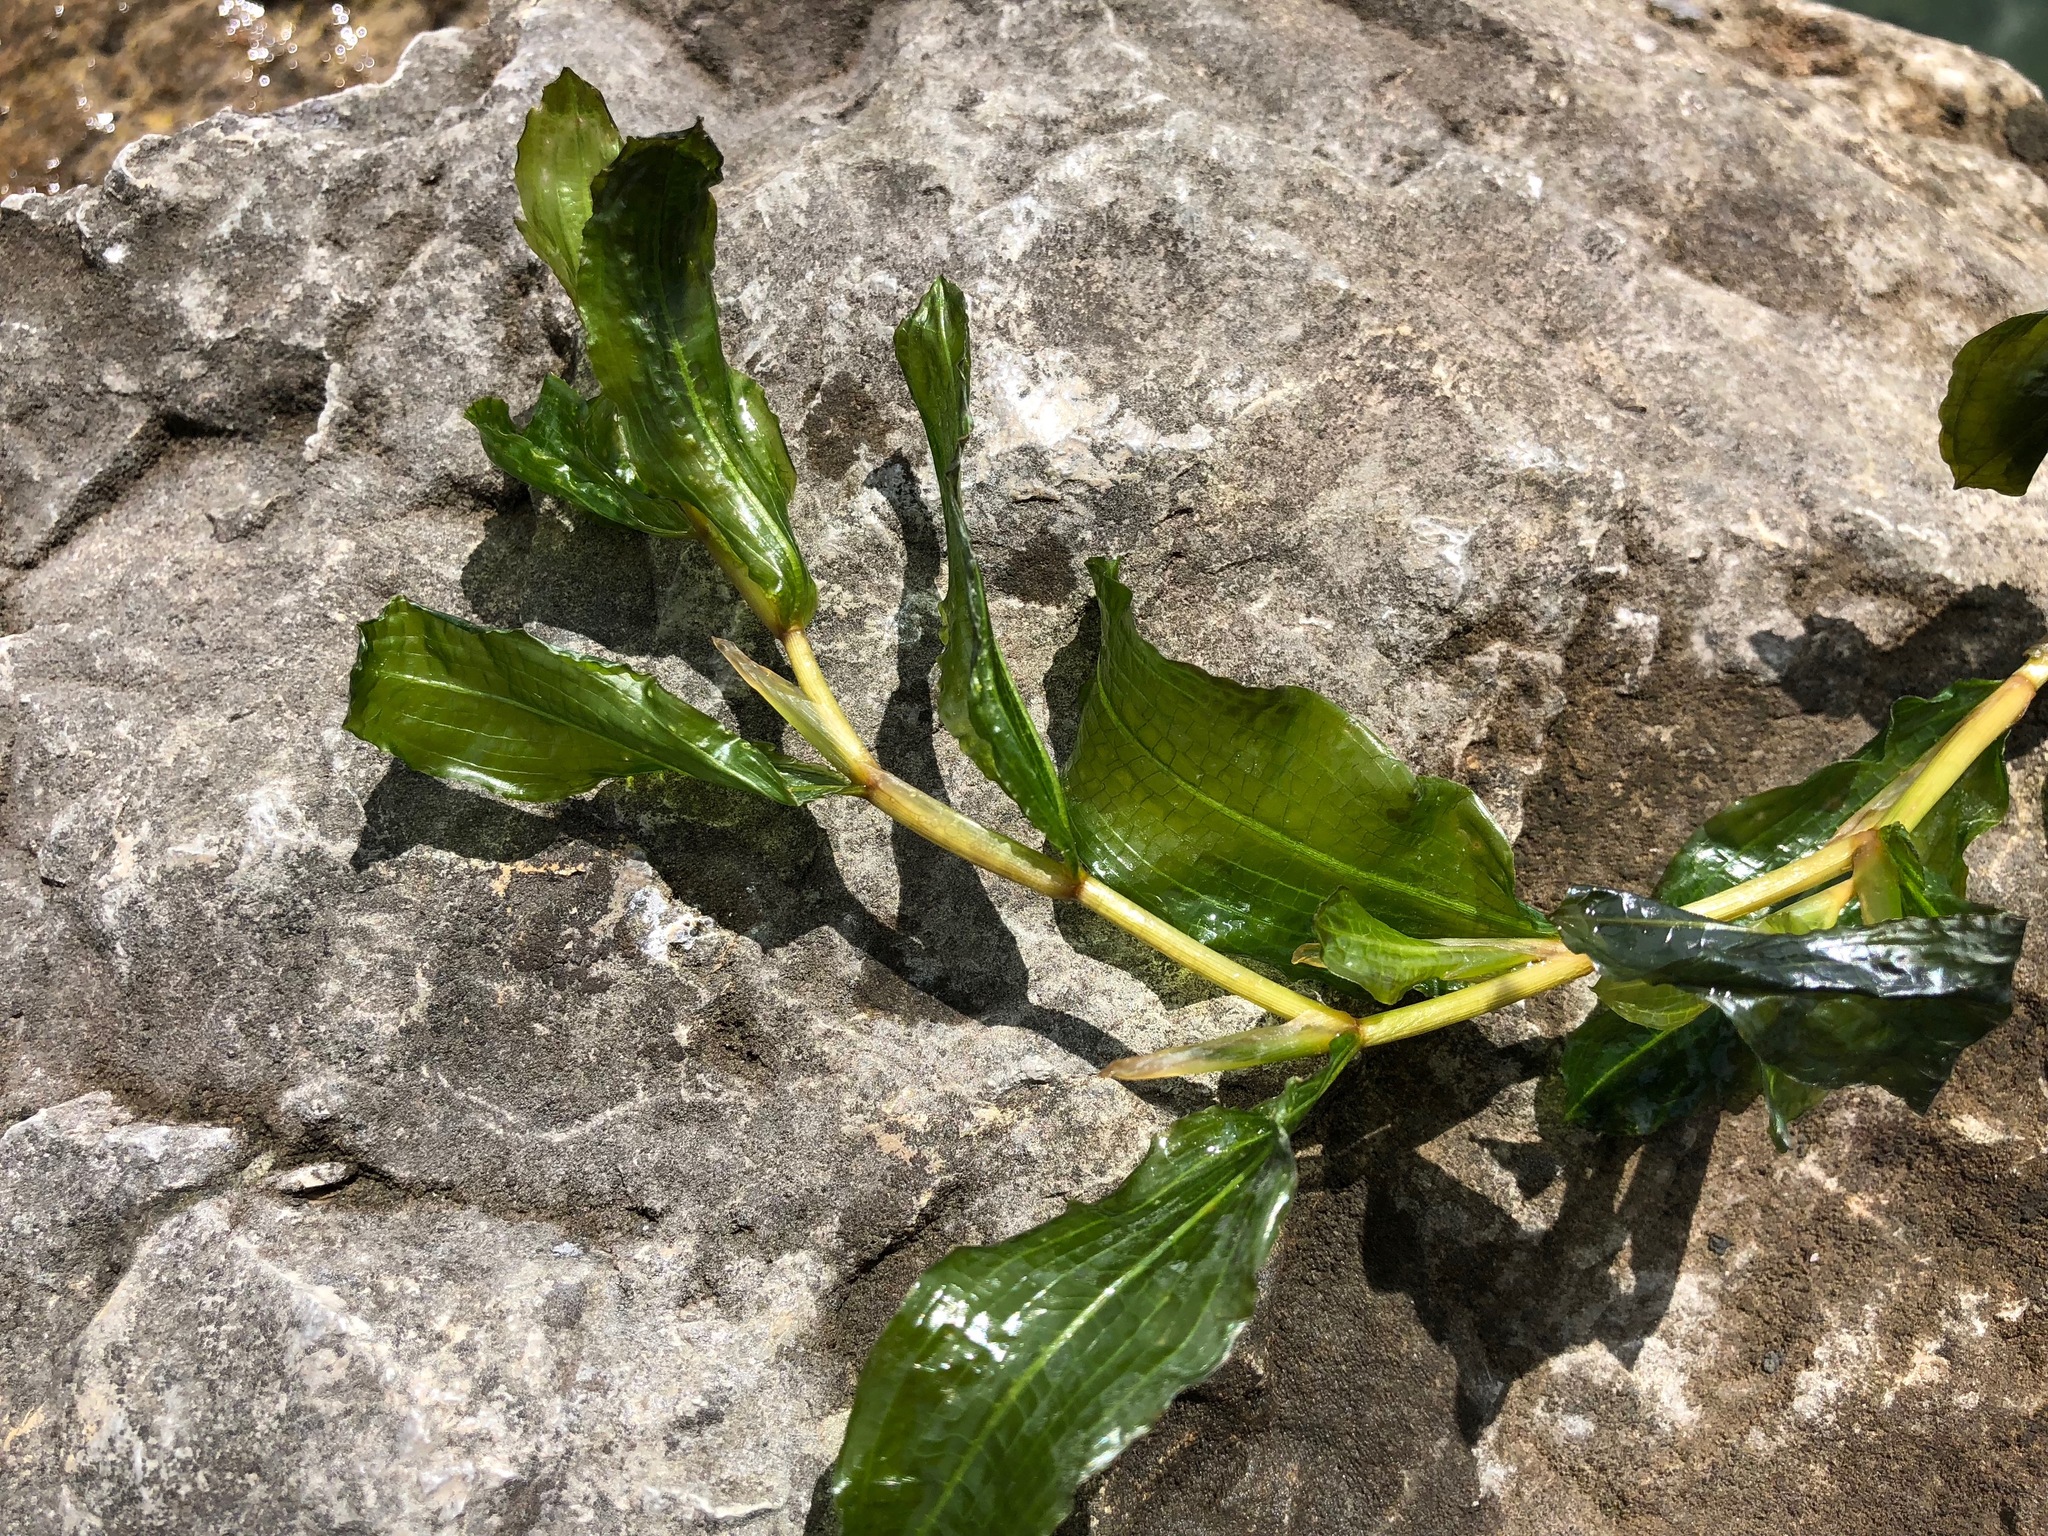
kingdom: Plantae
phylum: Tracheophyta
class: Liliopsida
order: Alismatales
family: Potamogetonaceae
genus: Potamogeton
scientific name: Potamogeton lucens
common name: Shining pondweed
